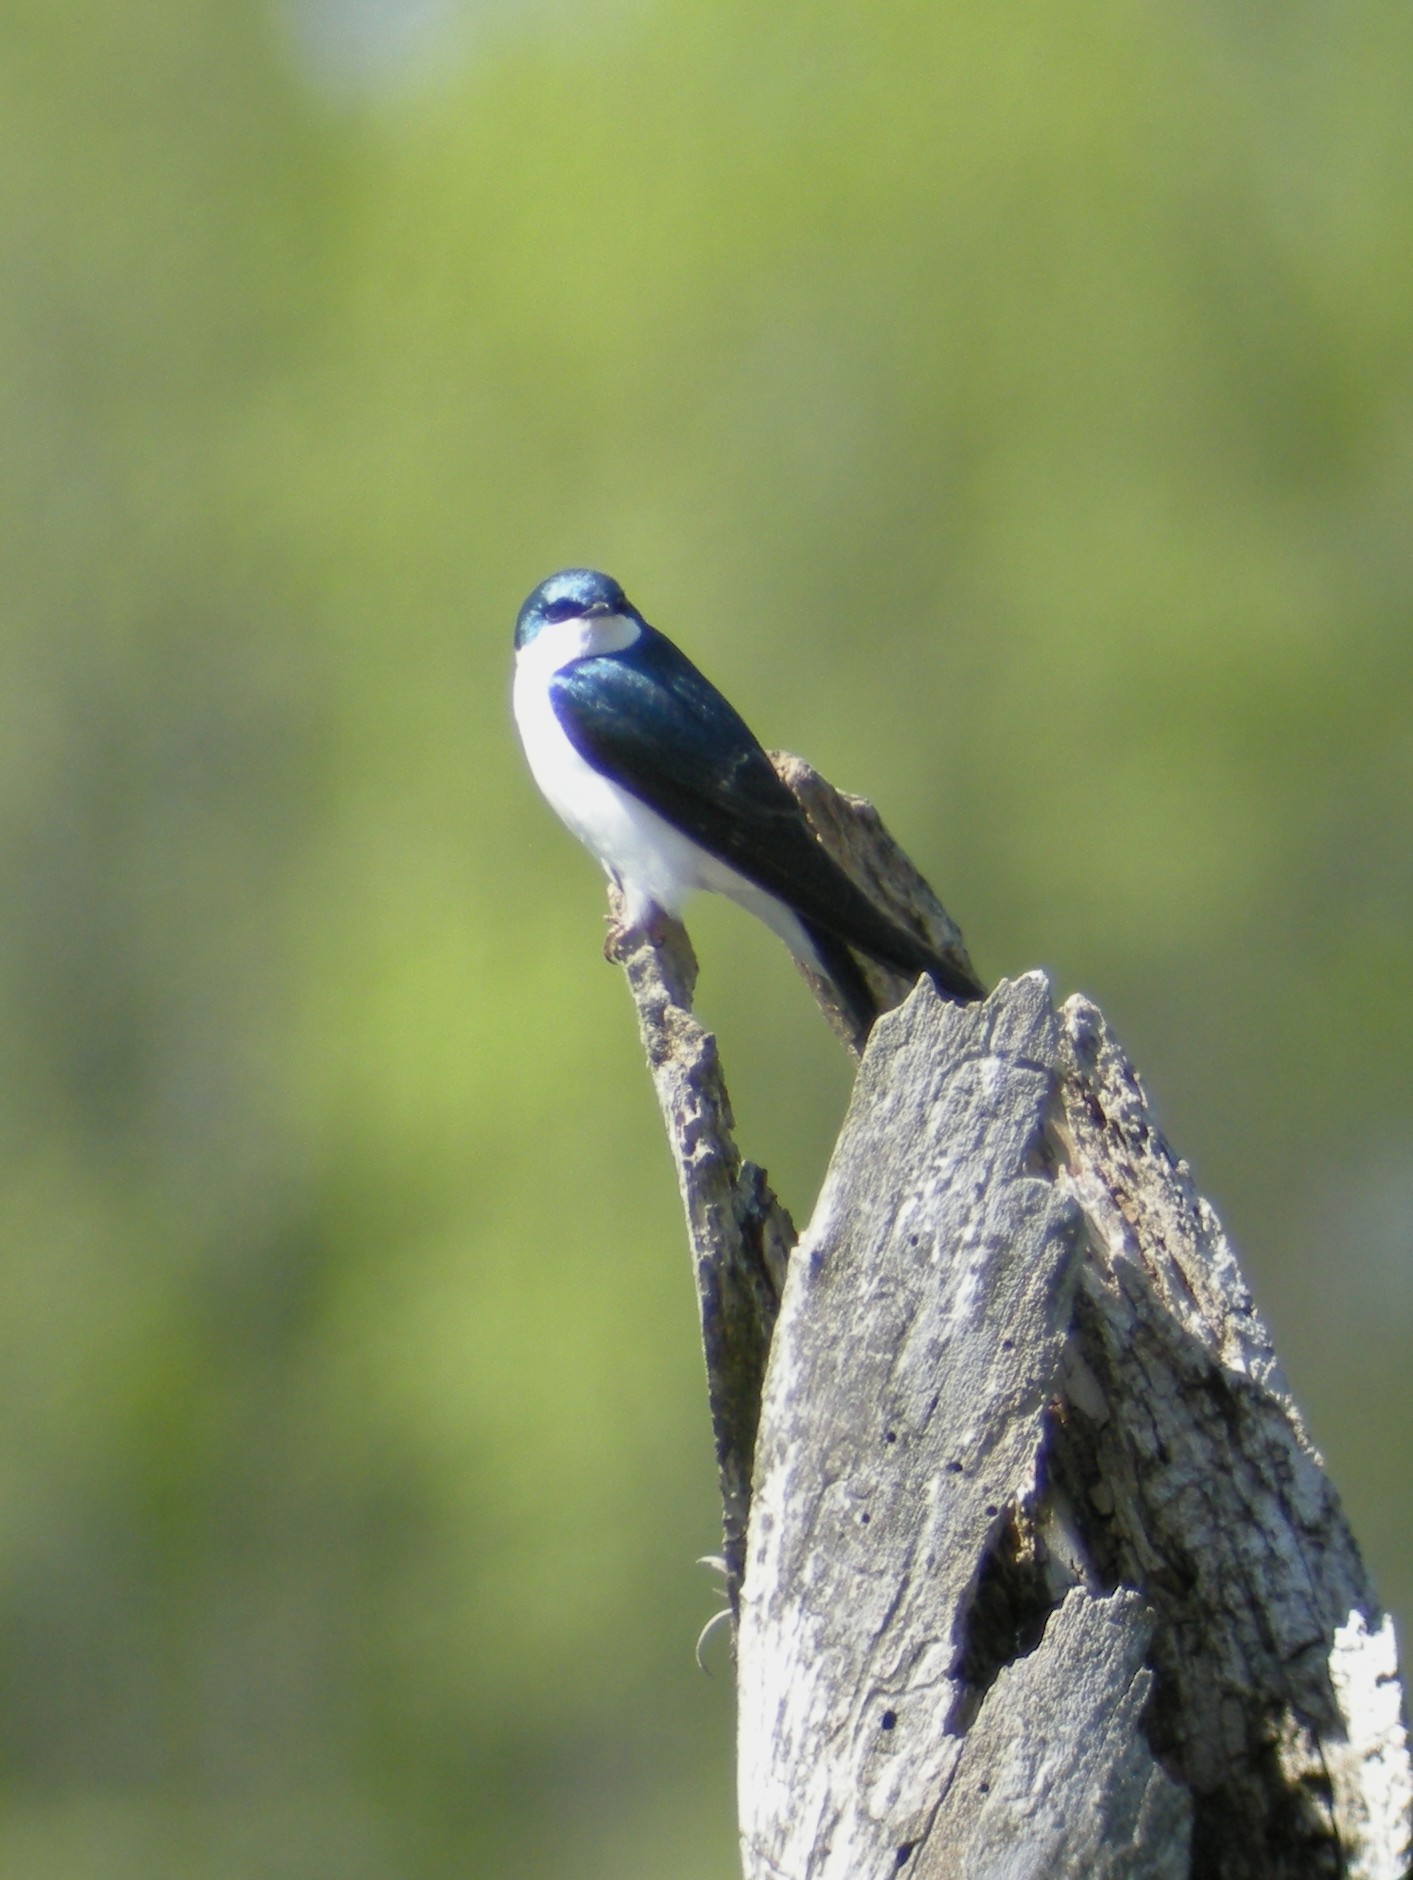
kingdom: Animalia
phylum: Chordata
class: Aves
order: Passeriformes
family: Hirundinidae
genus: Tachycineta
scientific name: Tachycineta bicolor
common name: Tree swallow
